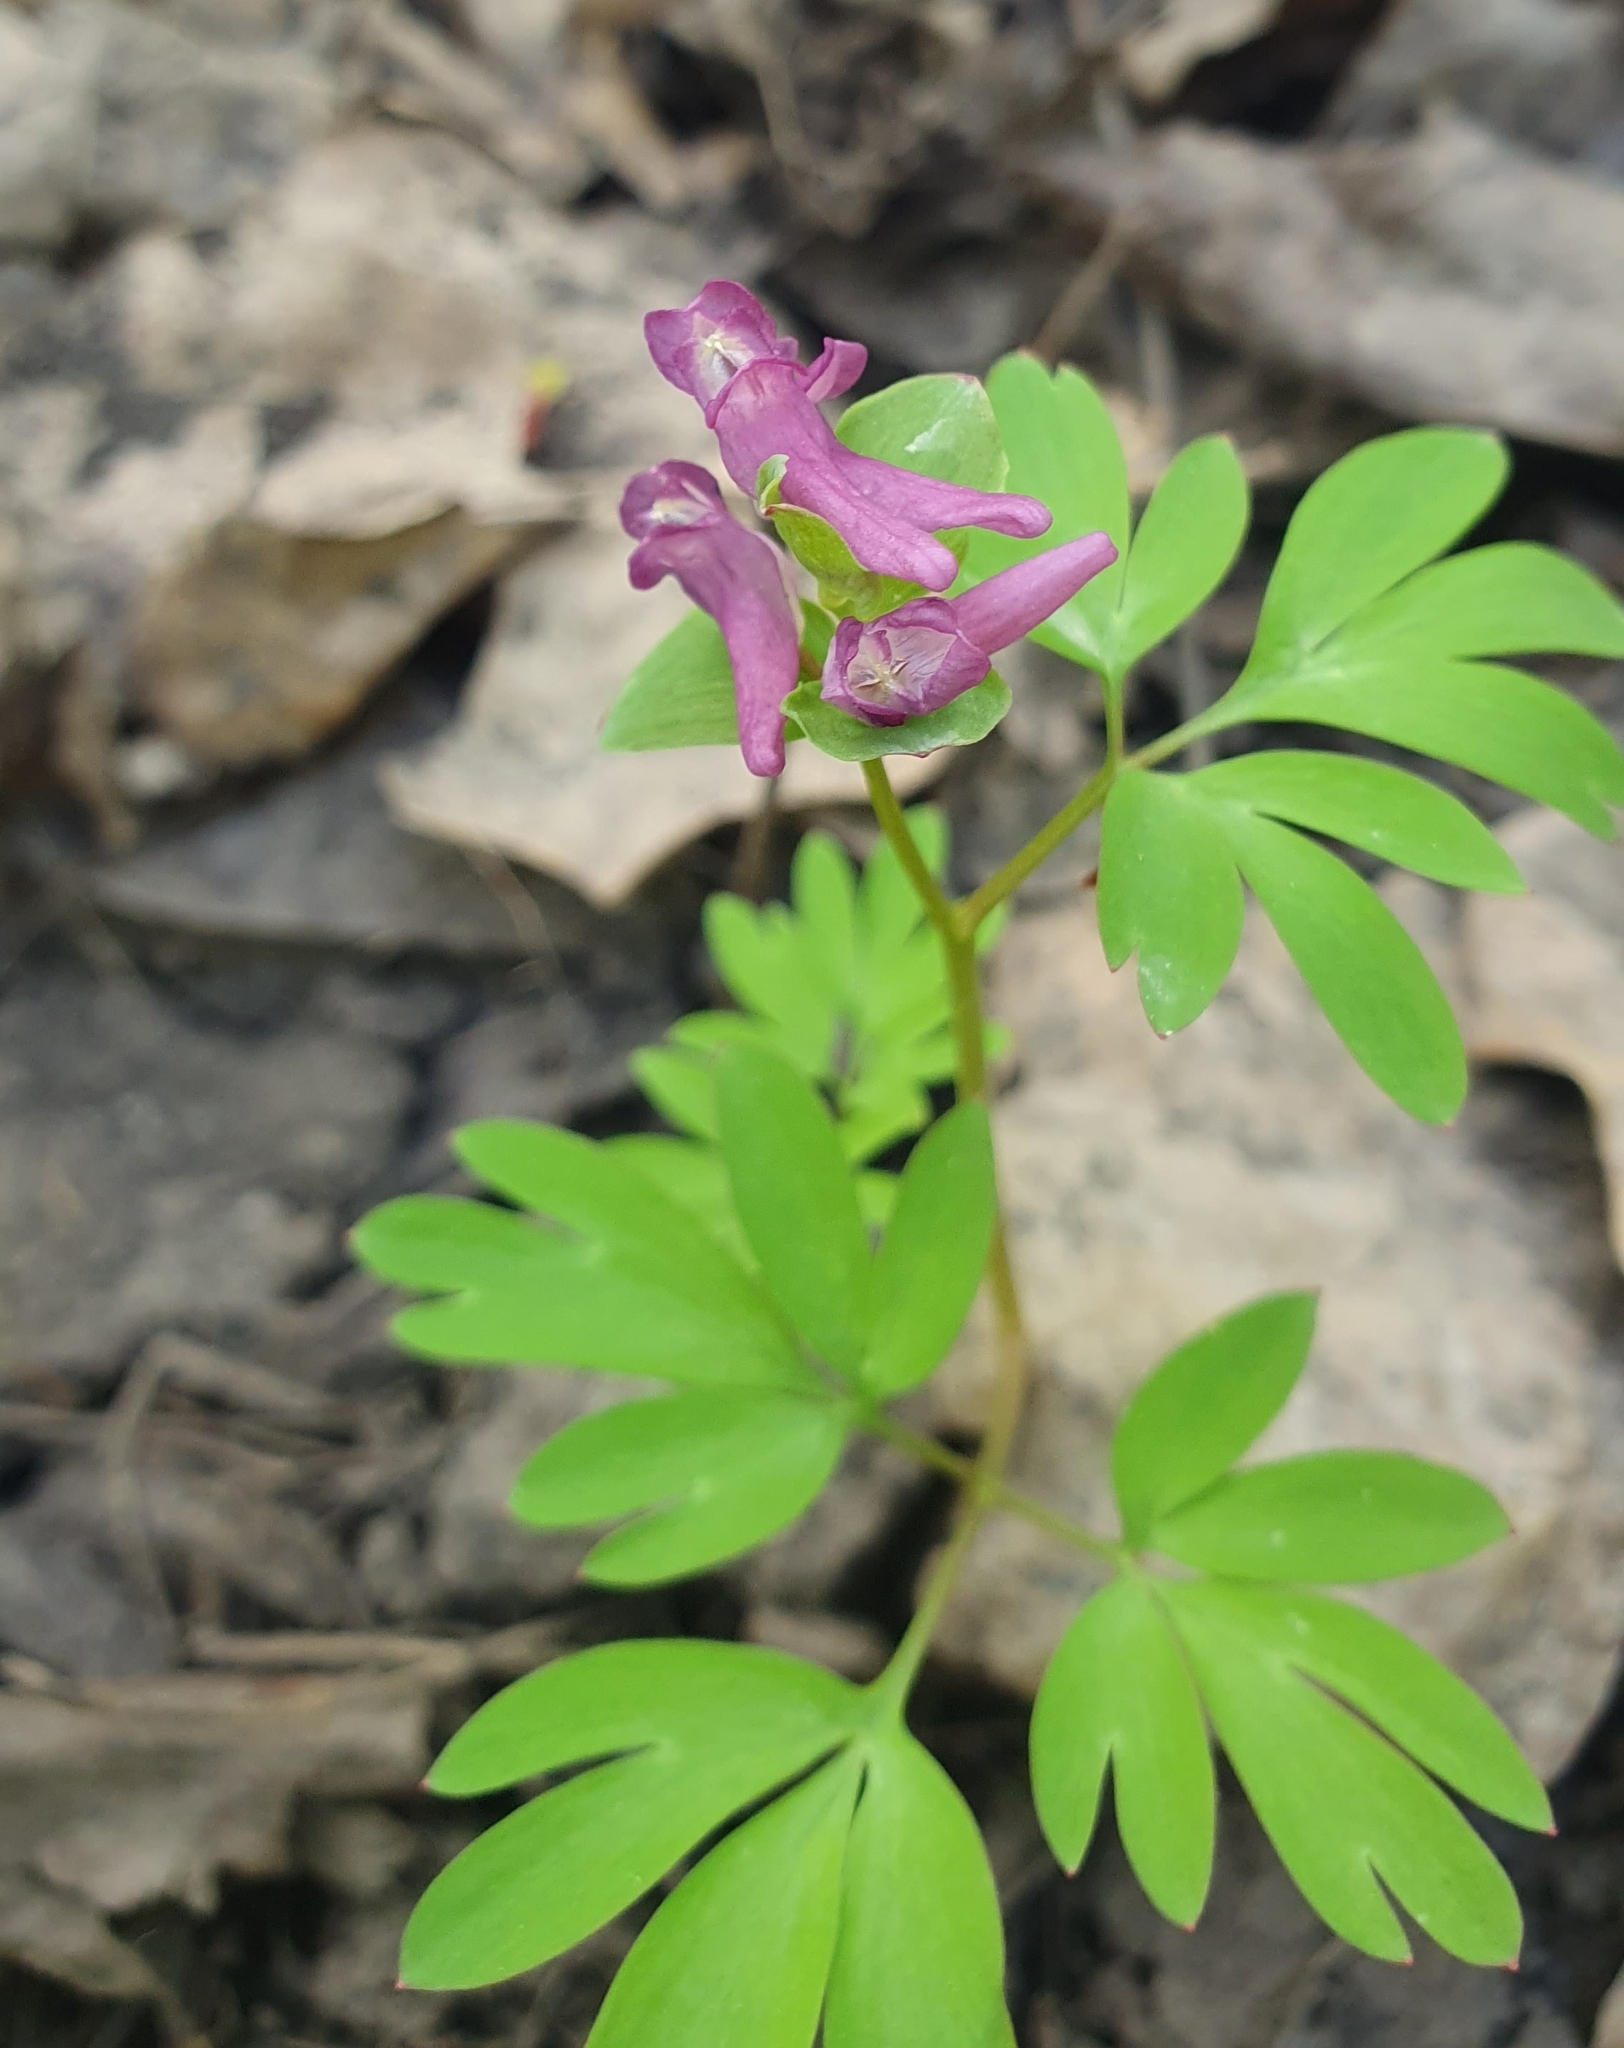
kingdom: Plantae
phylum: Tracheophyta
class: Magnoliopsida
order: Ranunculales
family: Papaveraceae
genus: Corydalis
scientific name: Corydalis intermedia
